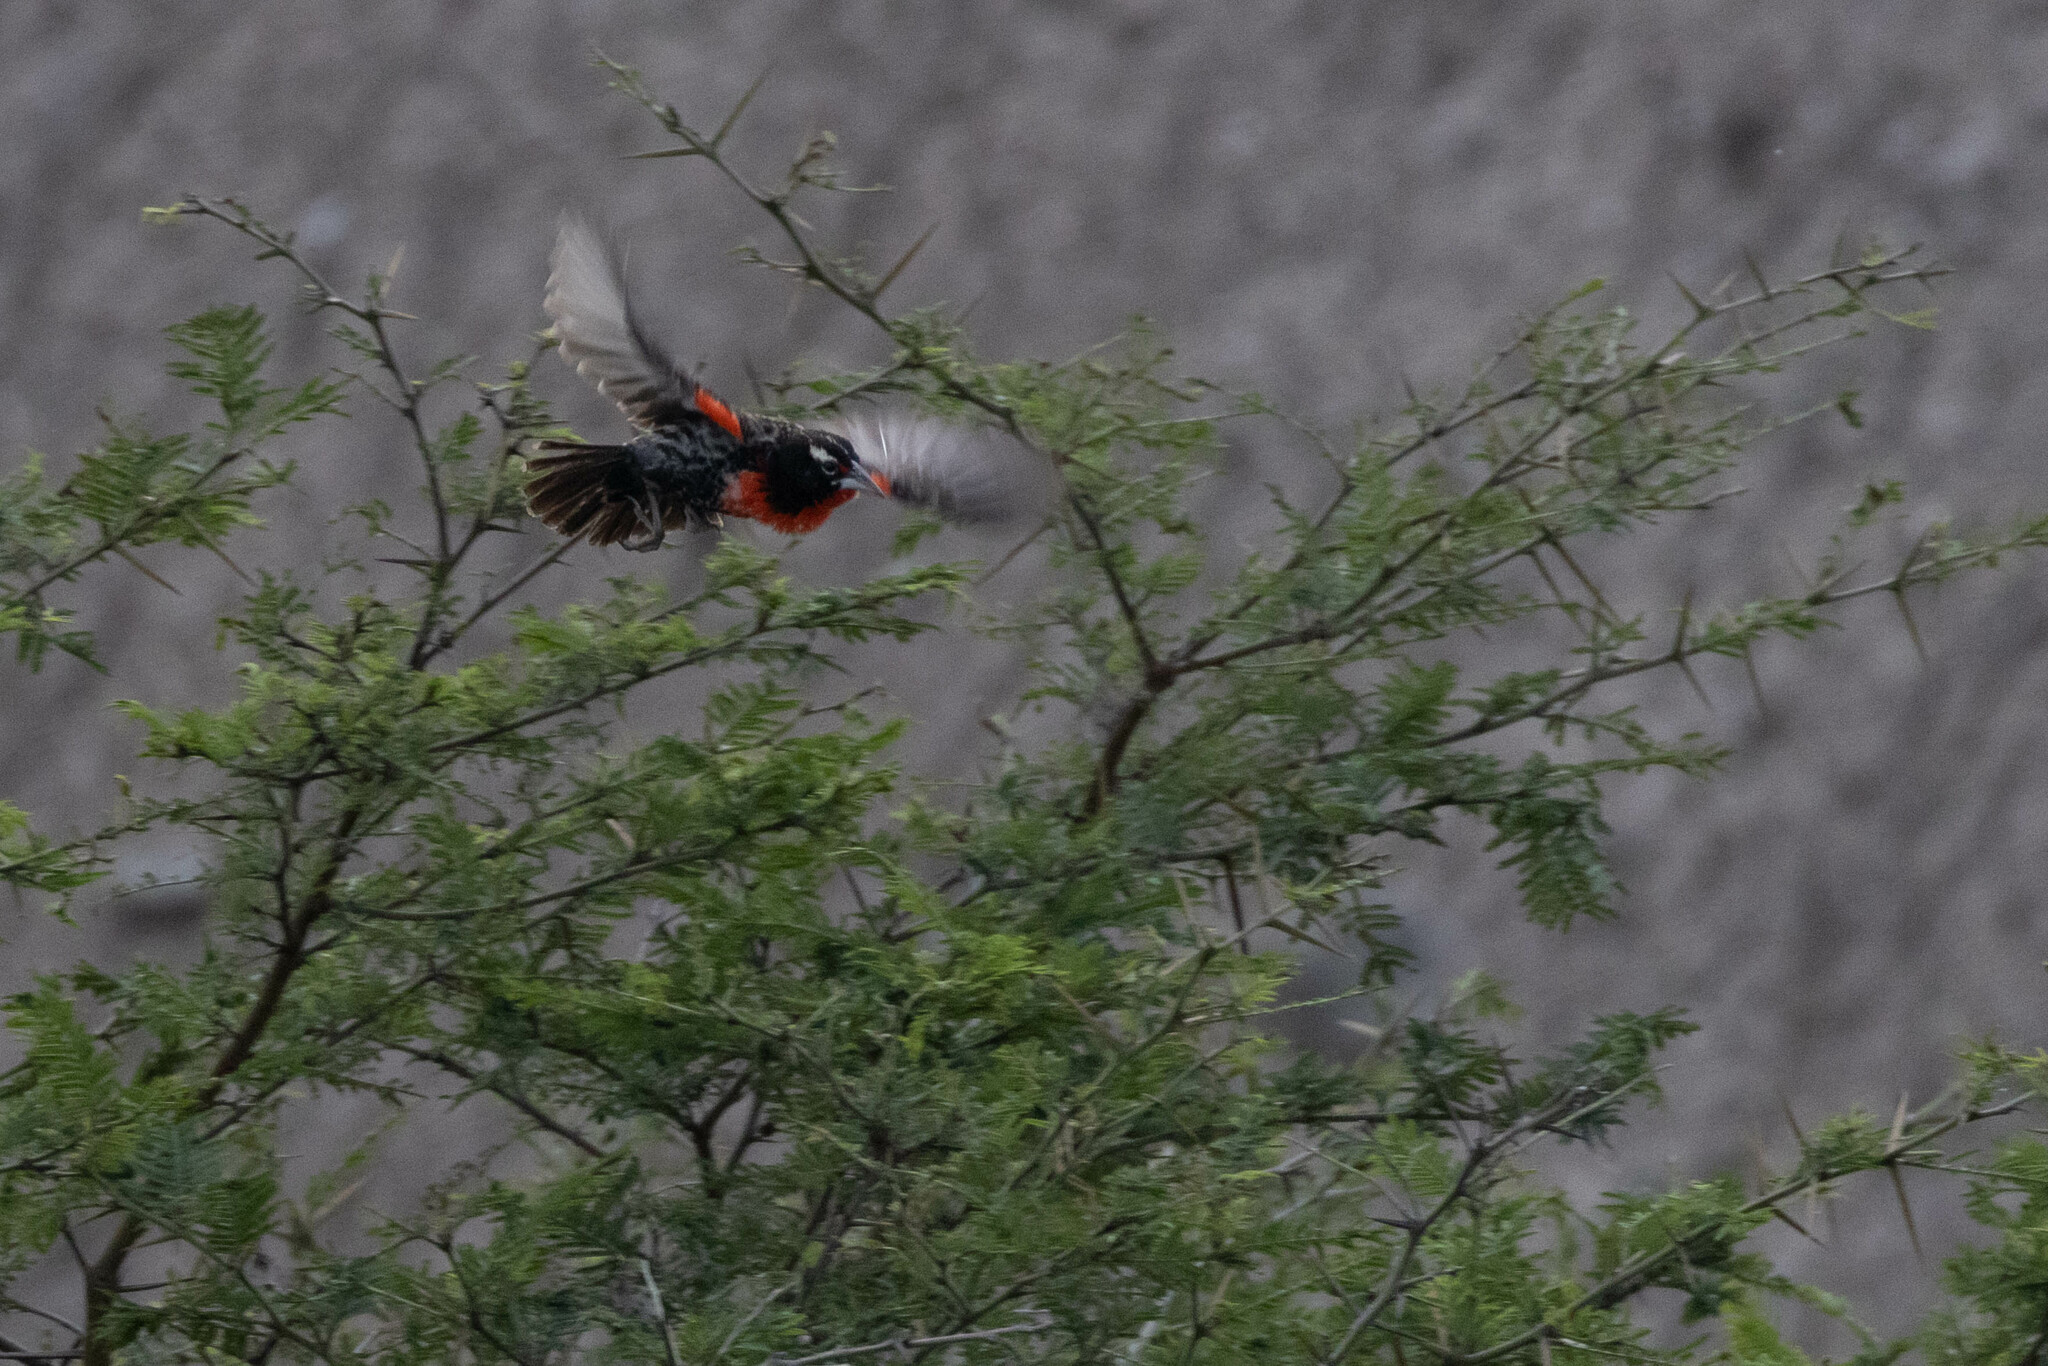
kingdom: Animalia
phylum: Chordata
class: Aves
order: Passeriformes
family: Icteridae
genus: Sturnella
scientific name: Sturnella bellicosa
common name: Peruvian meadowlark
